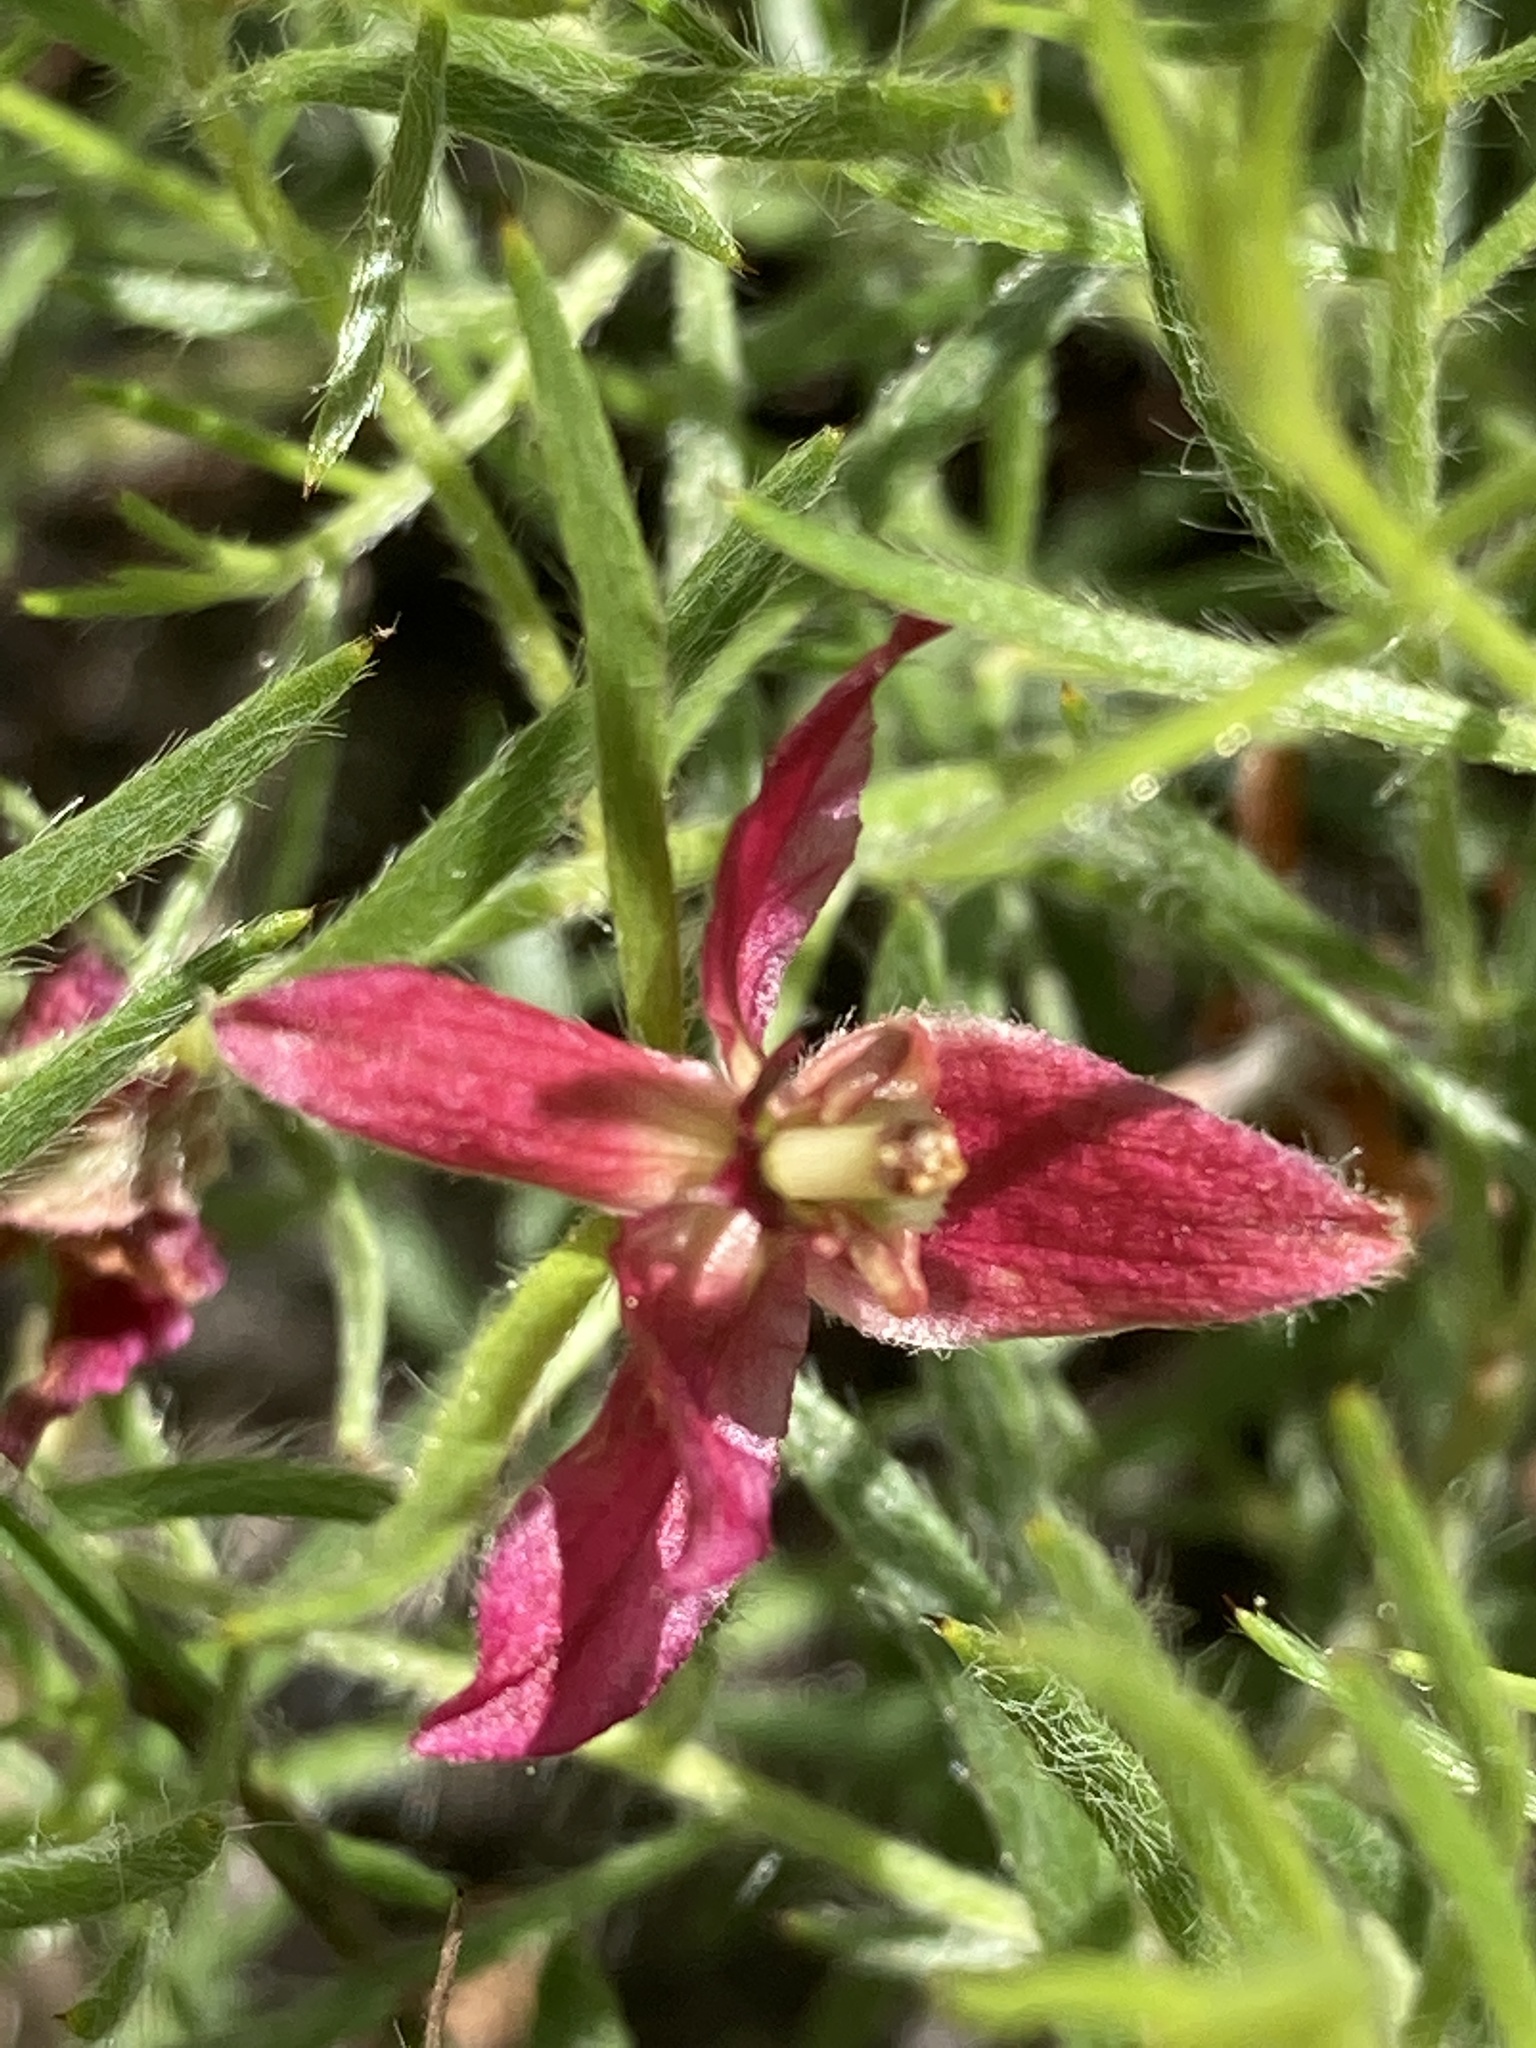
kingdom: Plantae
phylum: Tracheophyta
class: Magnoliopsida
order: Zygophyllales
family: Krameriaceae
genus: Krameria
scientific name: Krameria lanceolata
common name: Ratany
